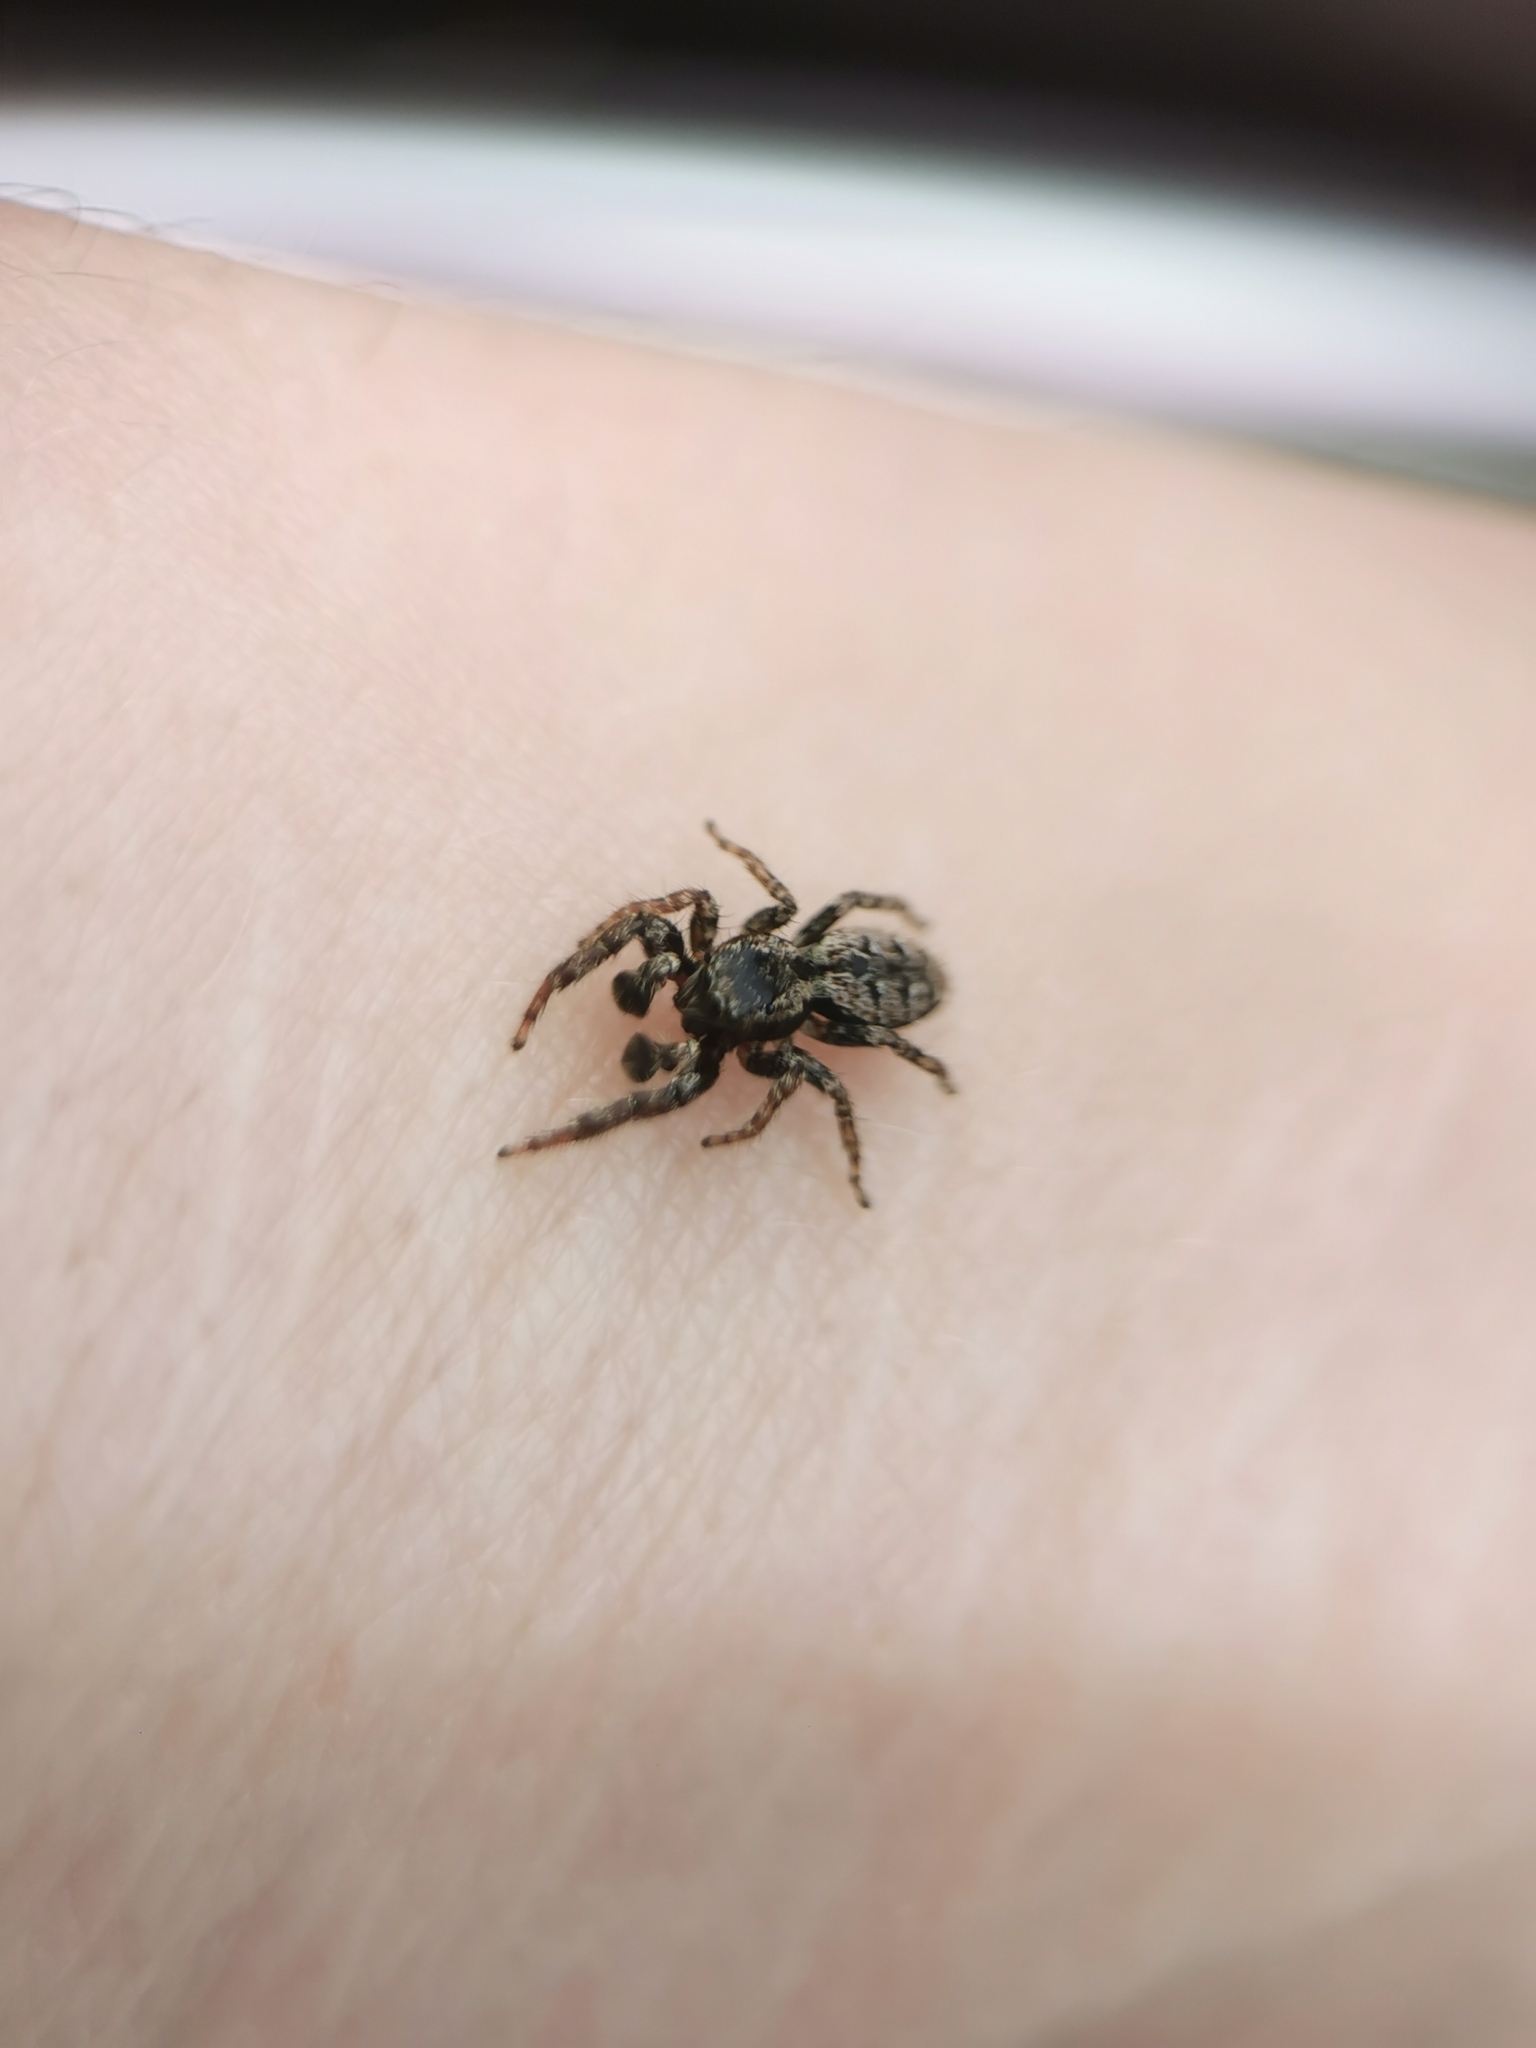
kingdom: Animalia
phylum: Arthropoda
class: Arachnida
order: Araneae
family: Salticidae
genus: Marpissa
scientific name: Marpissa muscosa
